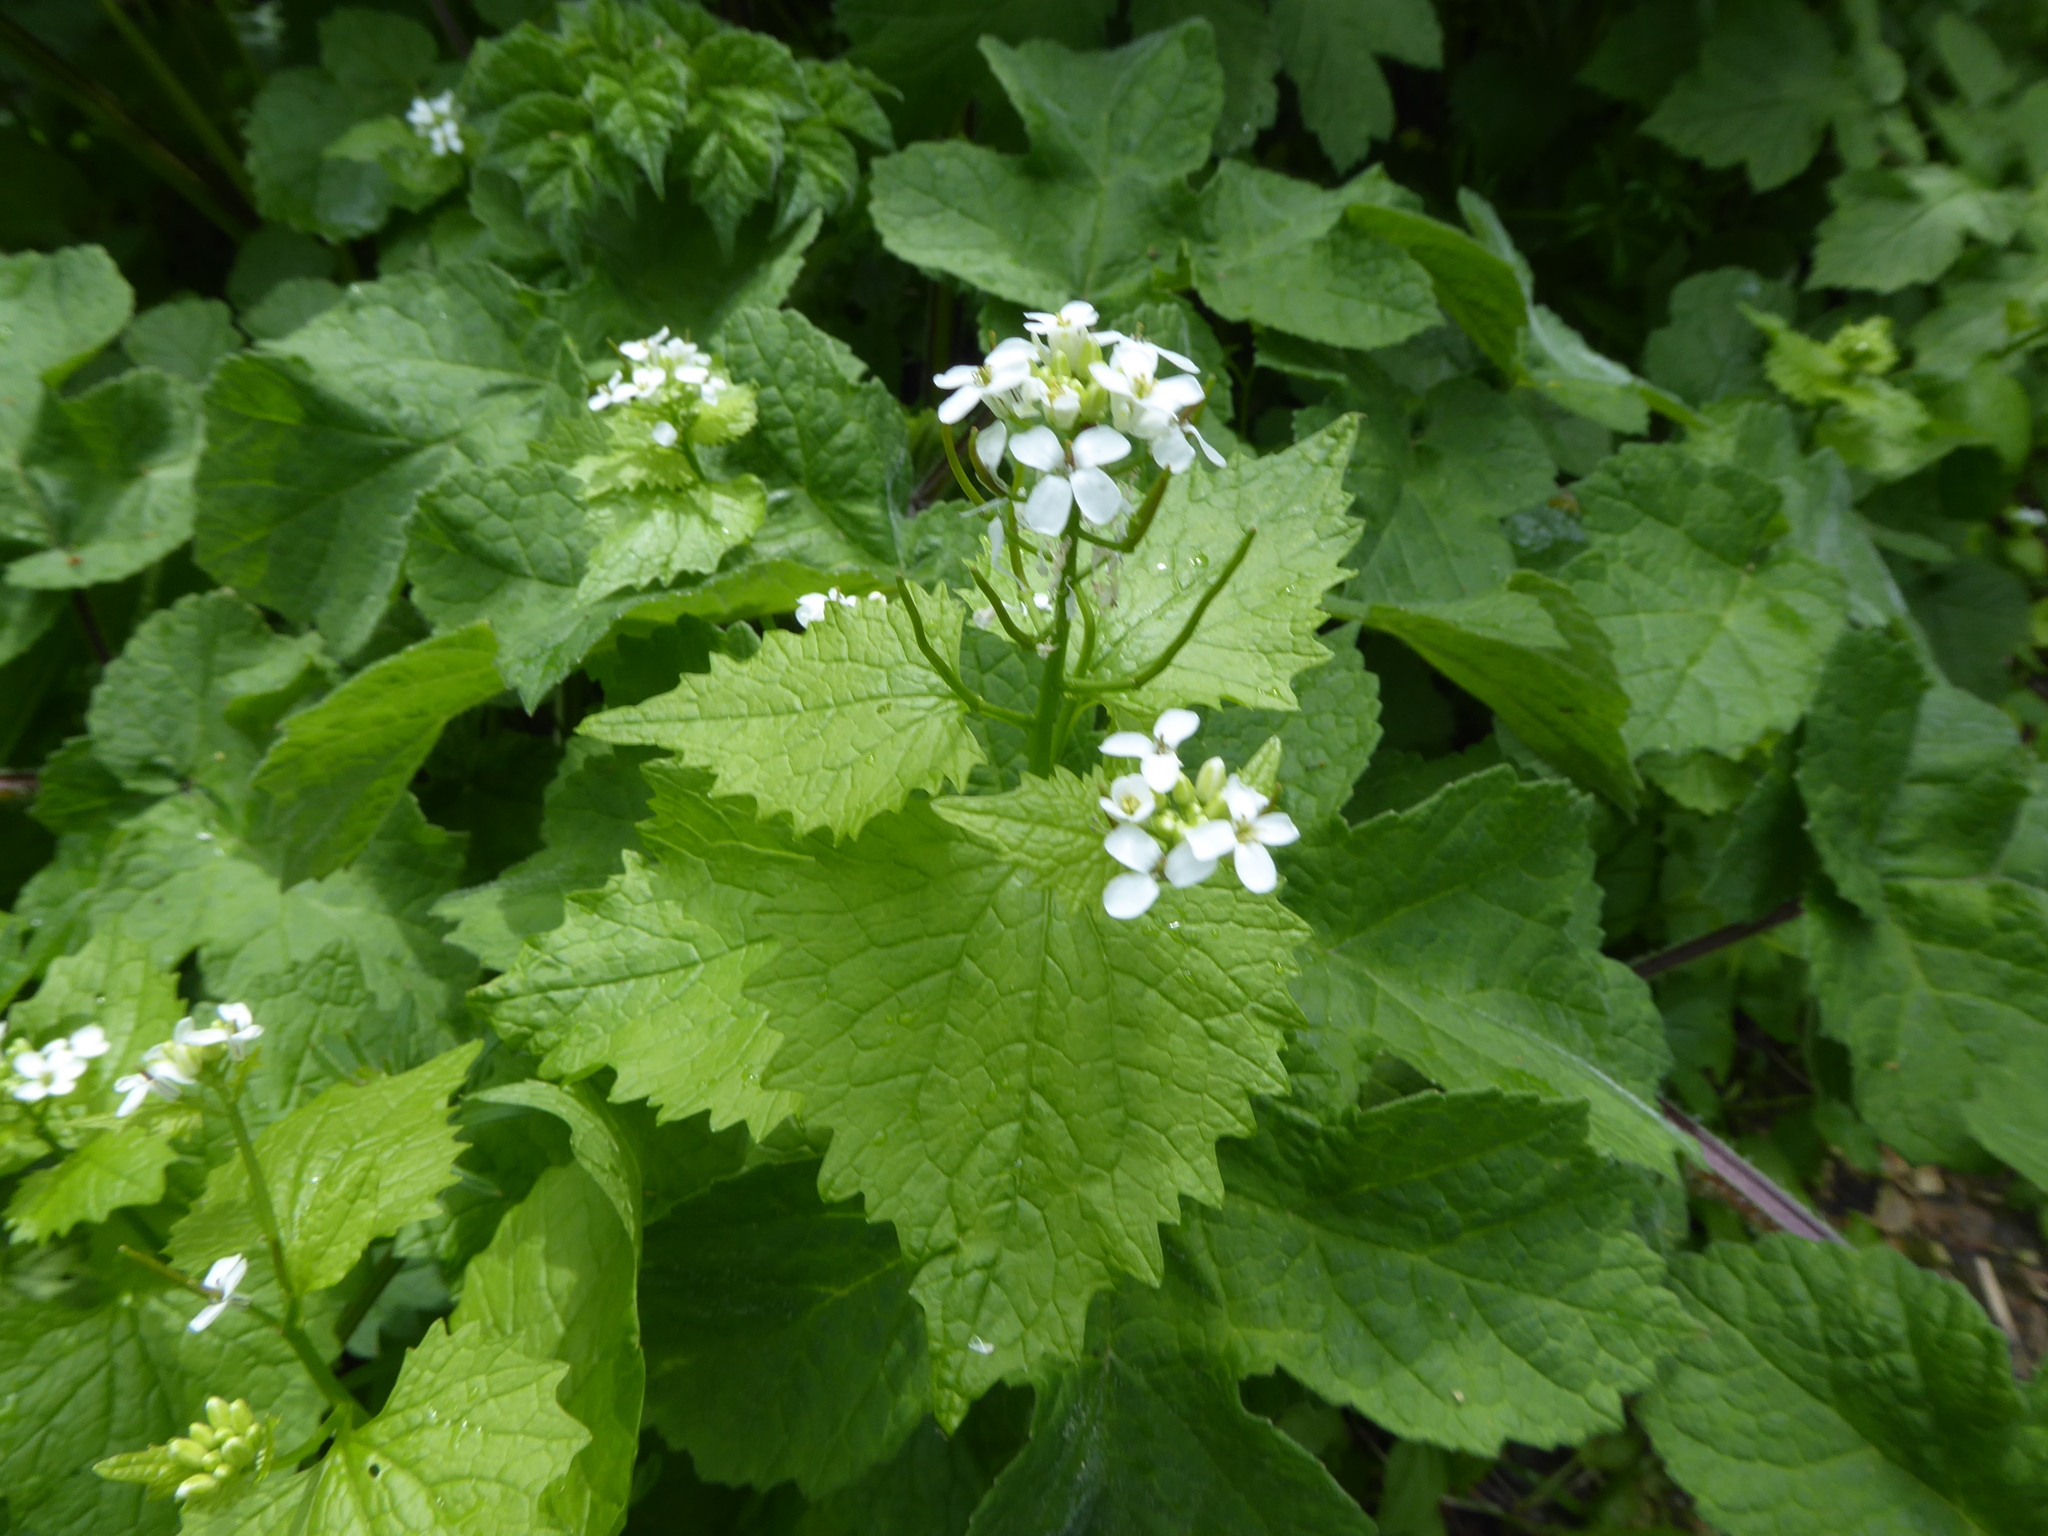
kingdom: Plantae
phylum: Tracheophyta
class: Magnoliopsida
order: Brassicales
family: Brassicaceae
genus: Alliaria
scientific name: Alliaria petiolata
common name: Garlic mustard
